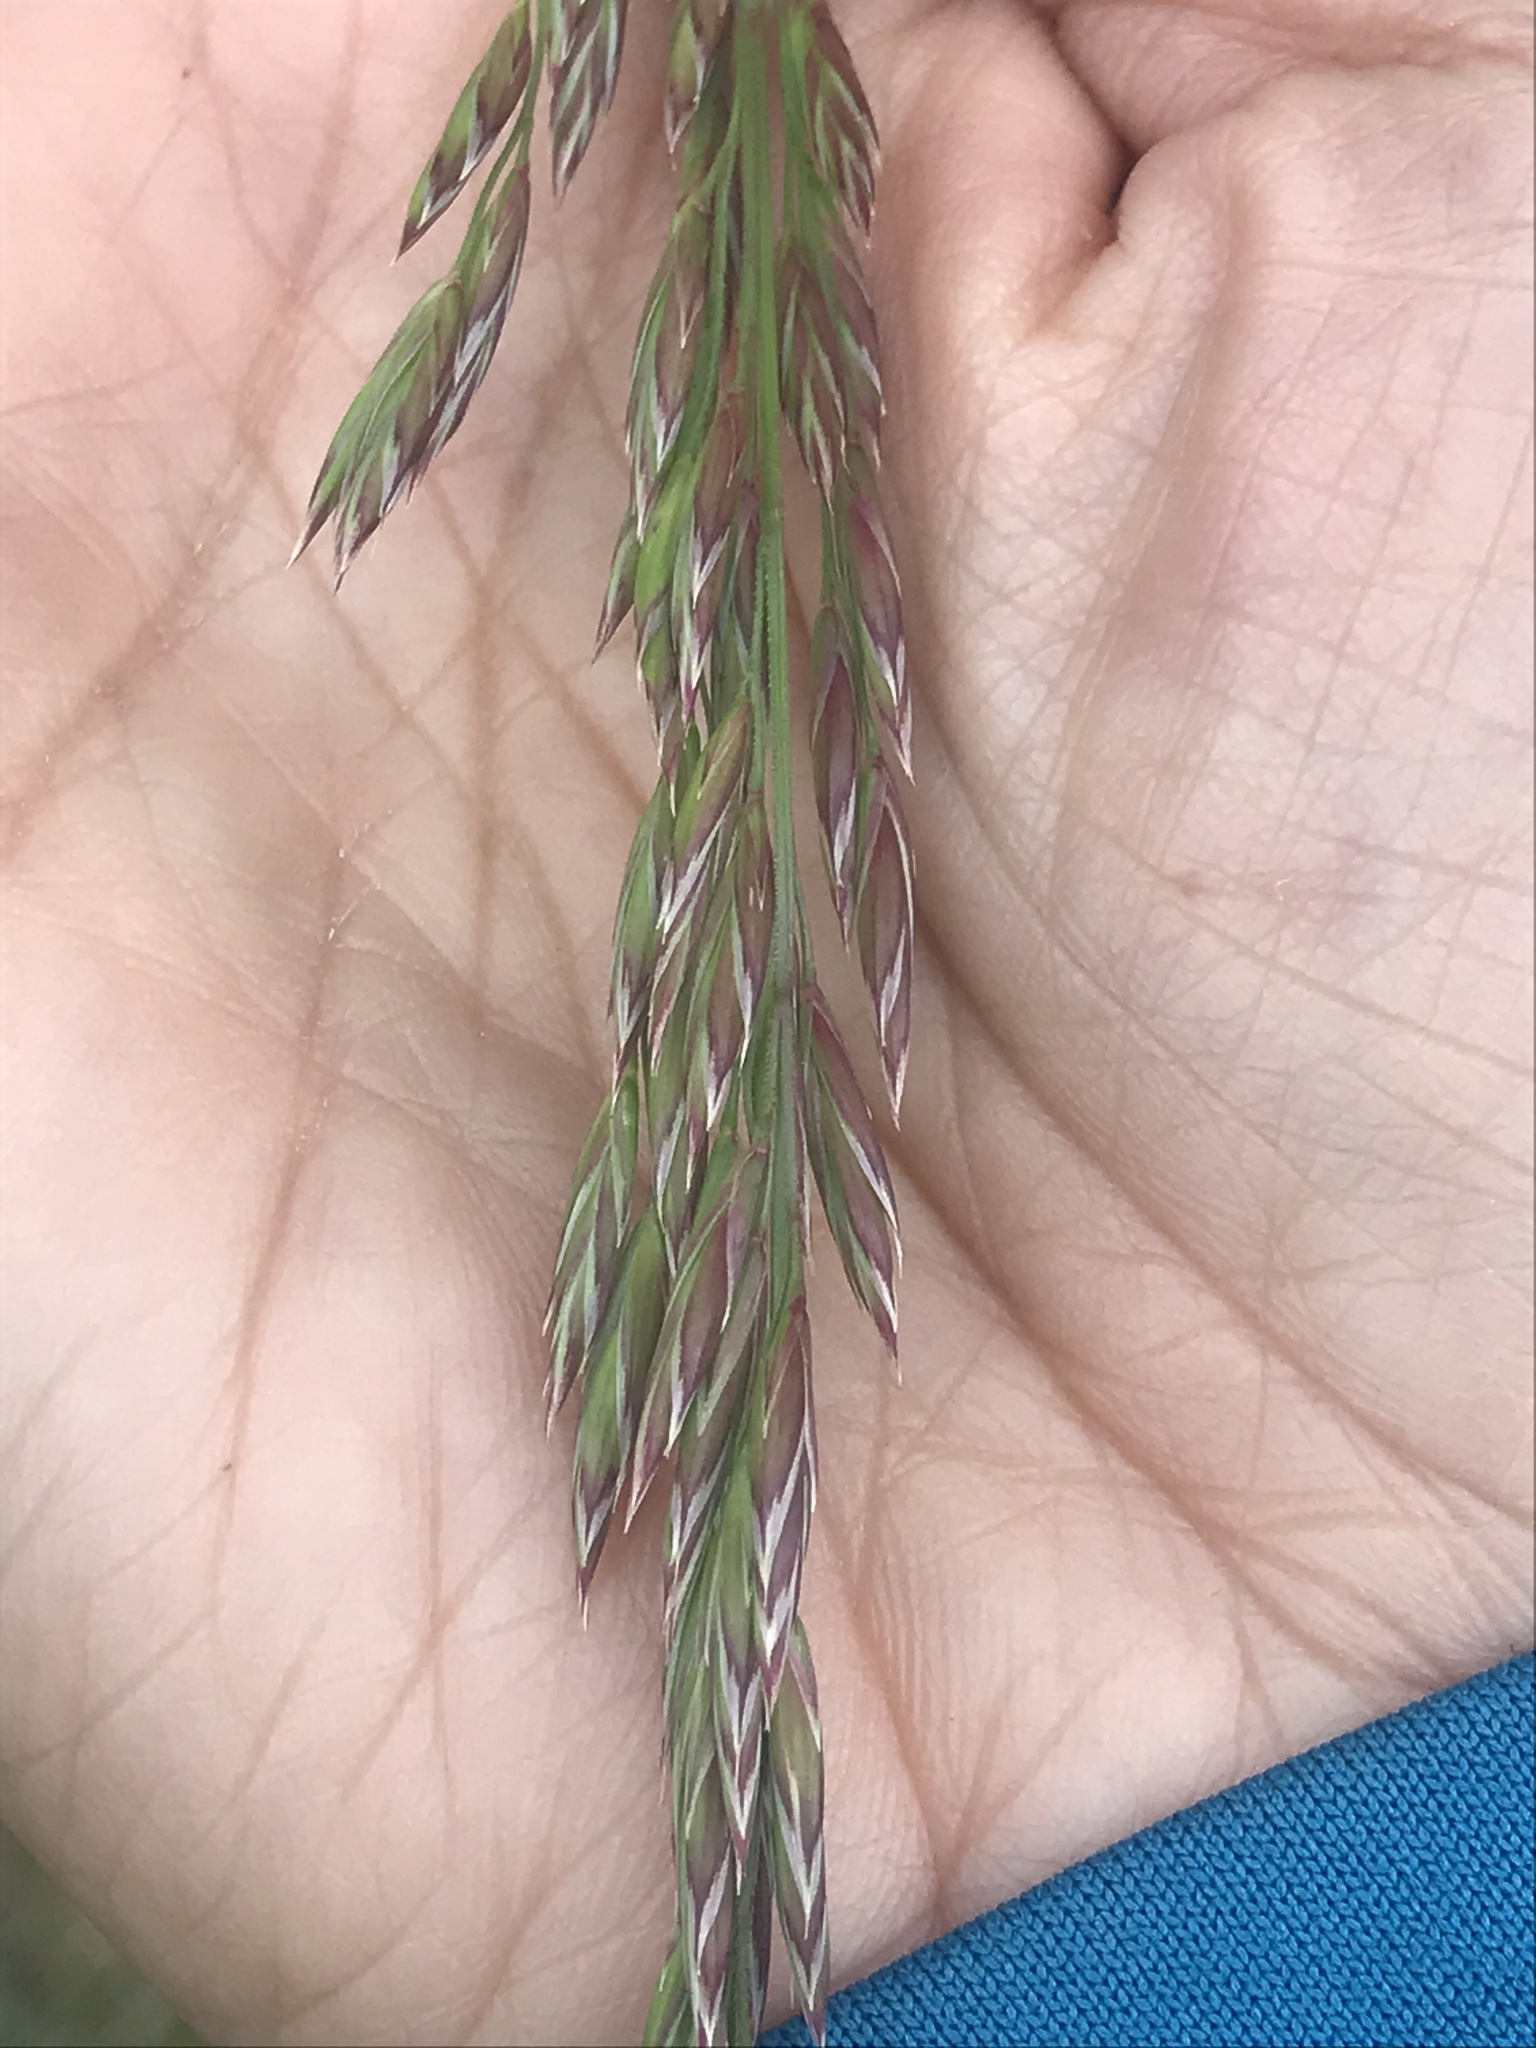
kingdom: Plantae
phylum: Tracheophyta
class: Liliopsida
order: Poales
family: Poaceae
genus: Lolium
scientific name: Lolium arundinaceum
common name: Reed fescue
